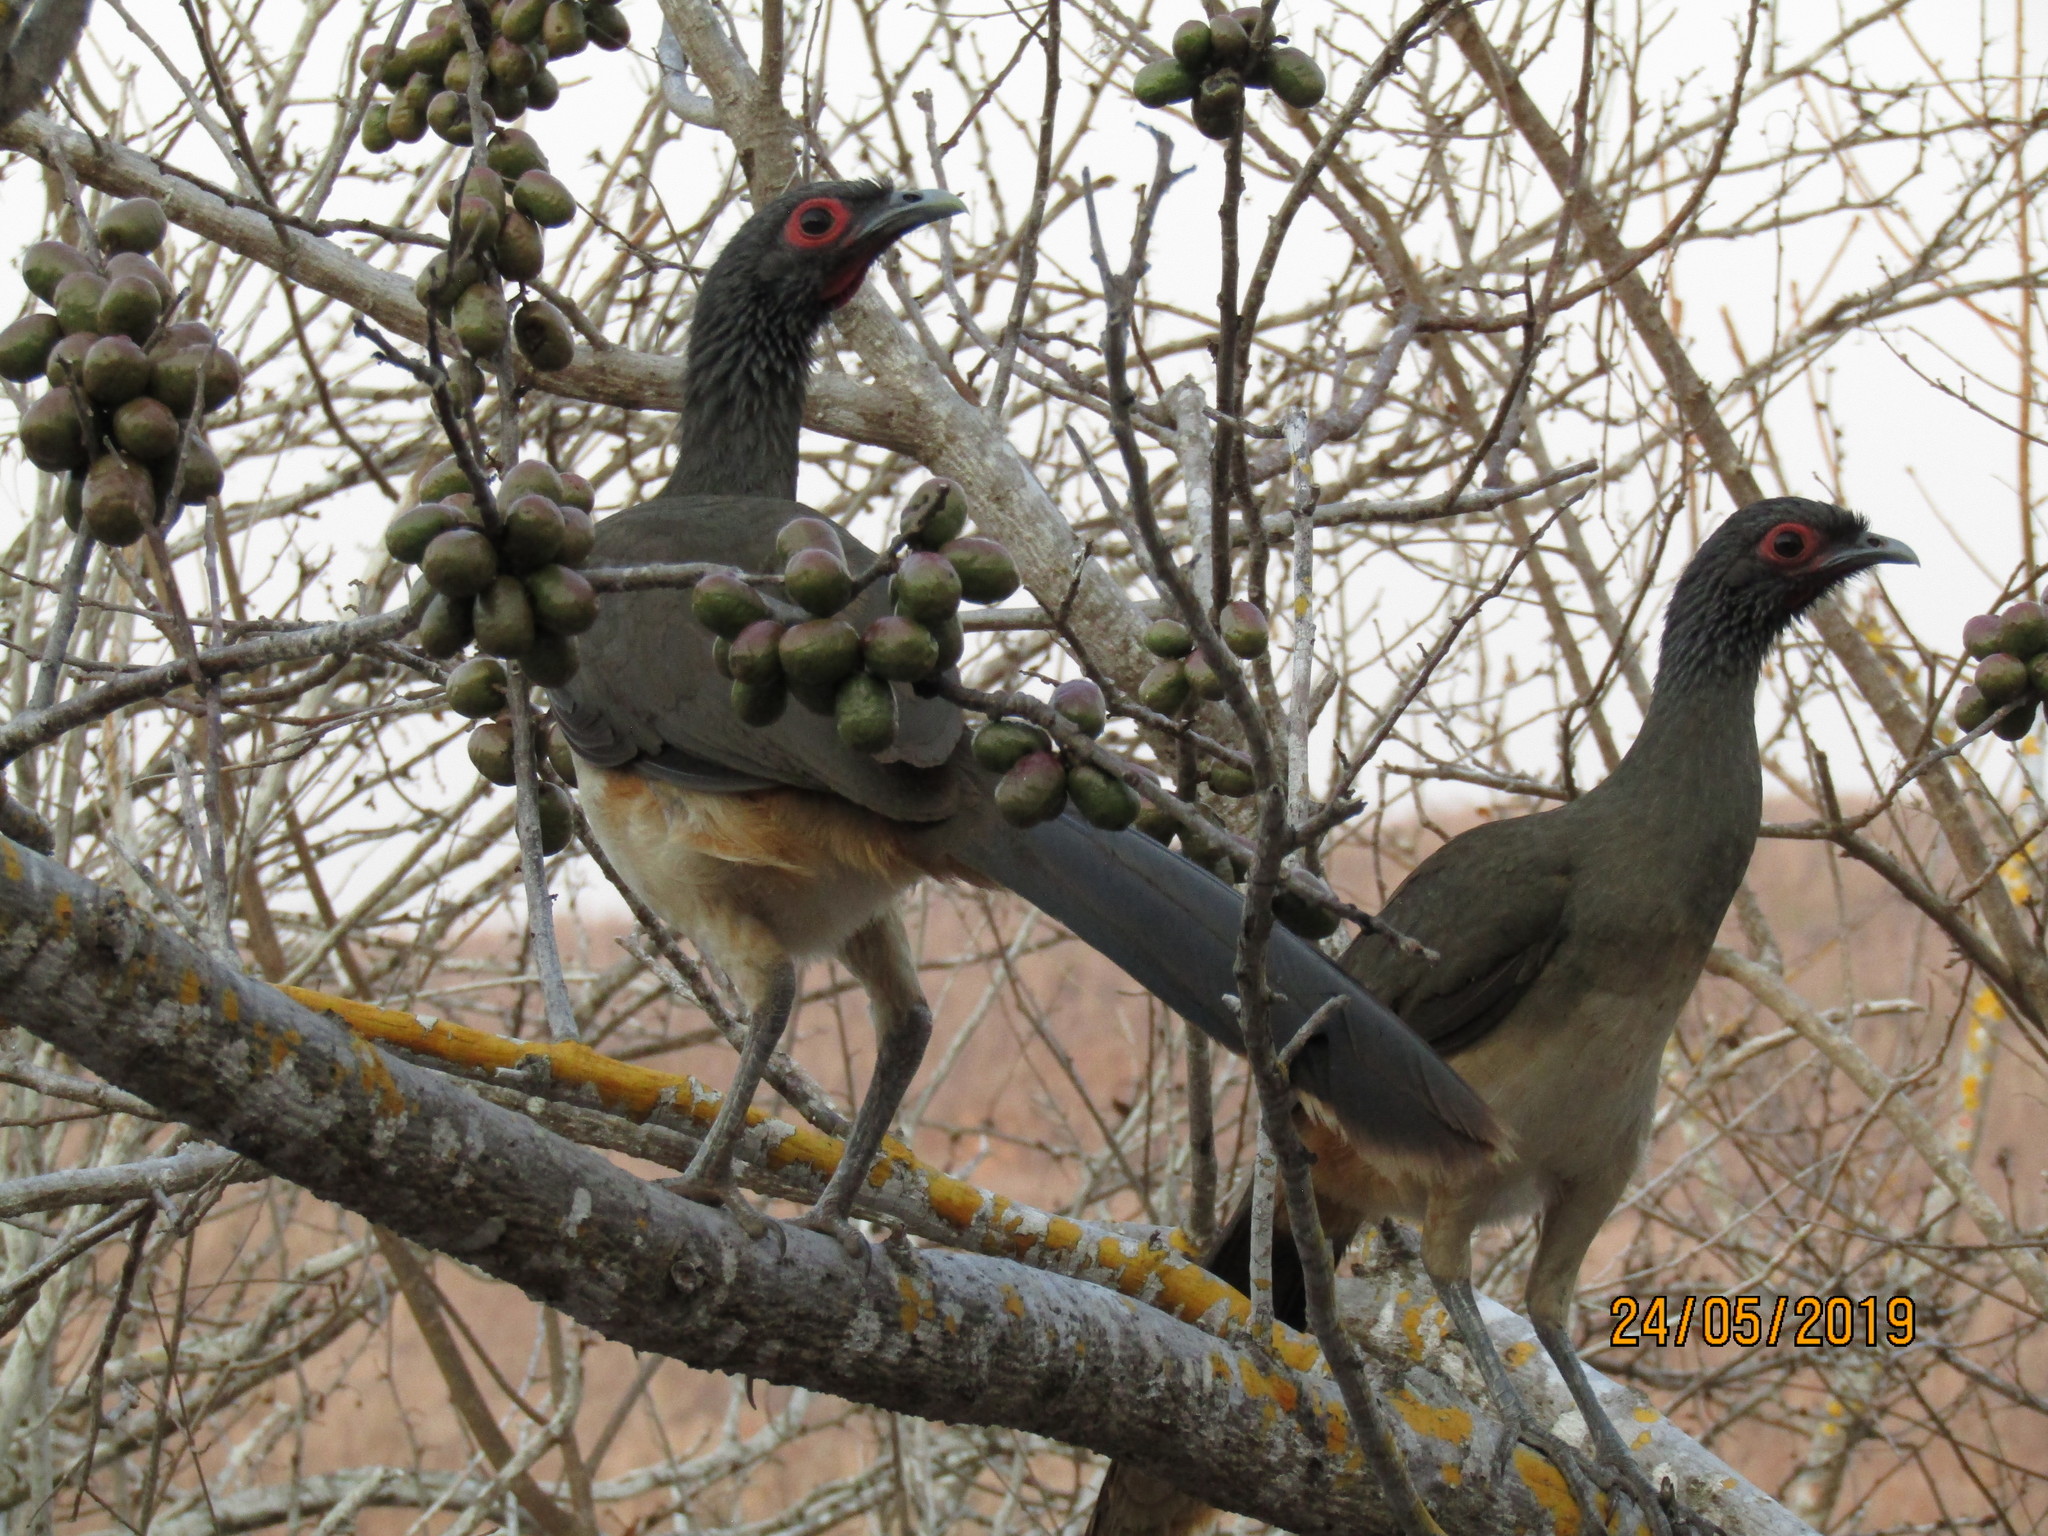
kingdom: Animalia
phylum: Chordata
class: Aves
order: Galliformes
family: Cracidae
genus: Ortalis
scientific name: Ortalis poliocephala
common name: West mexican chachalaca
